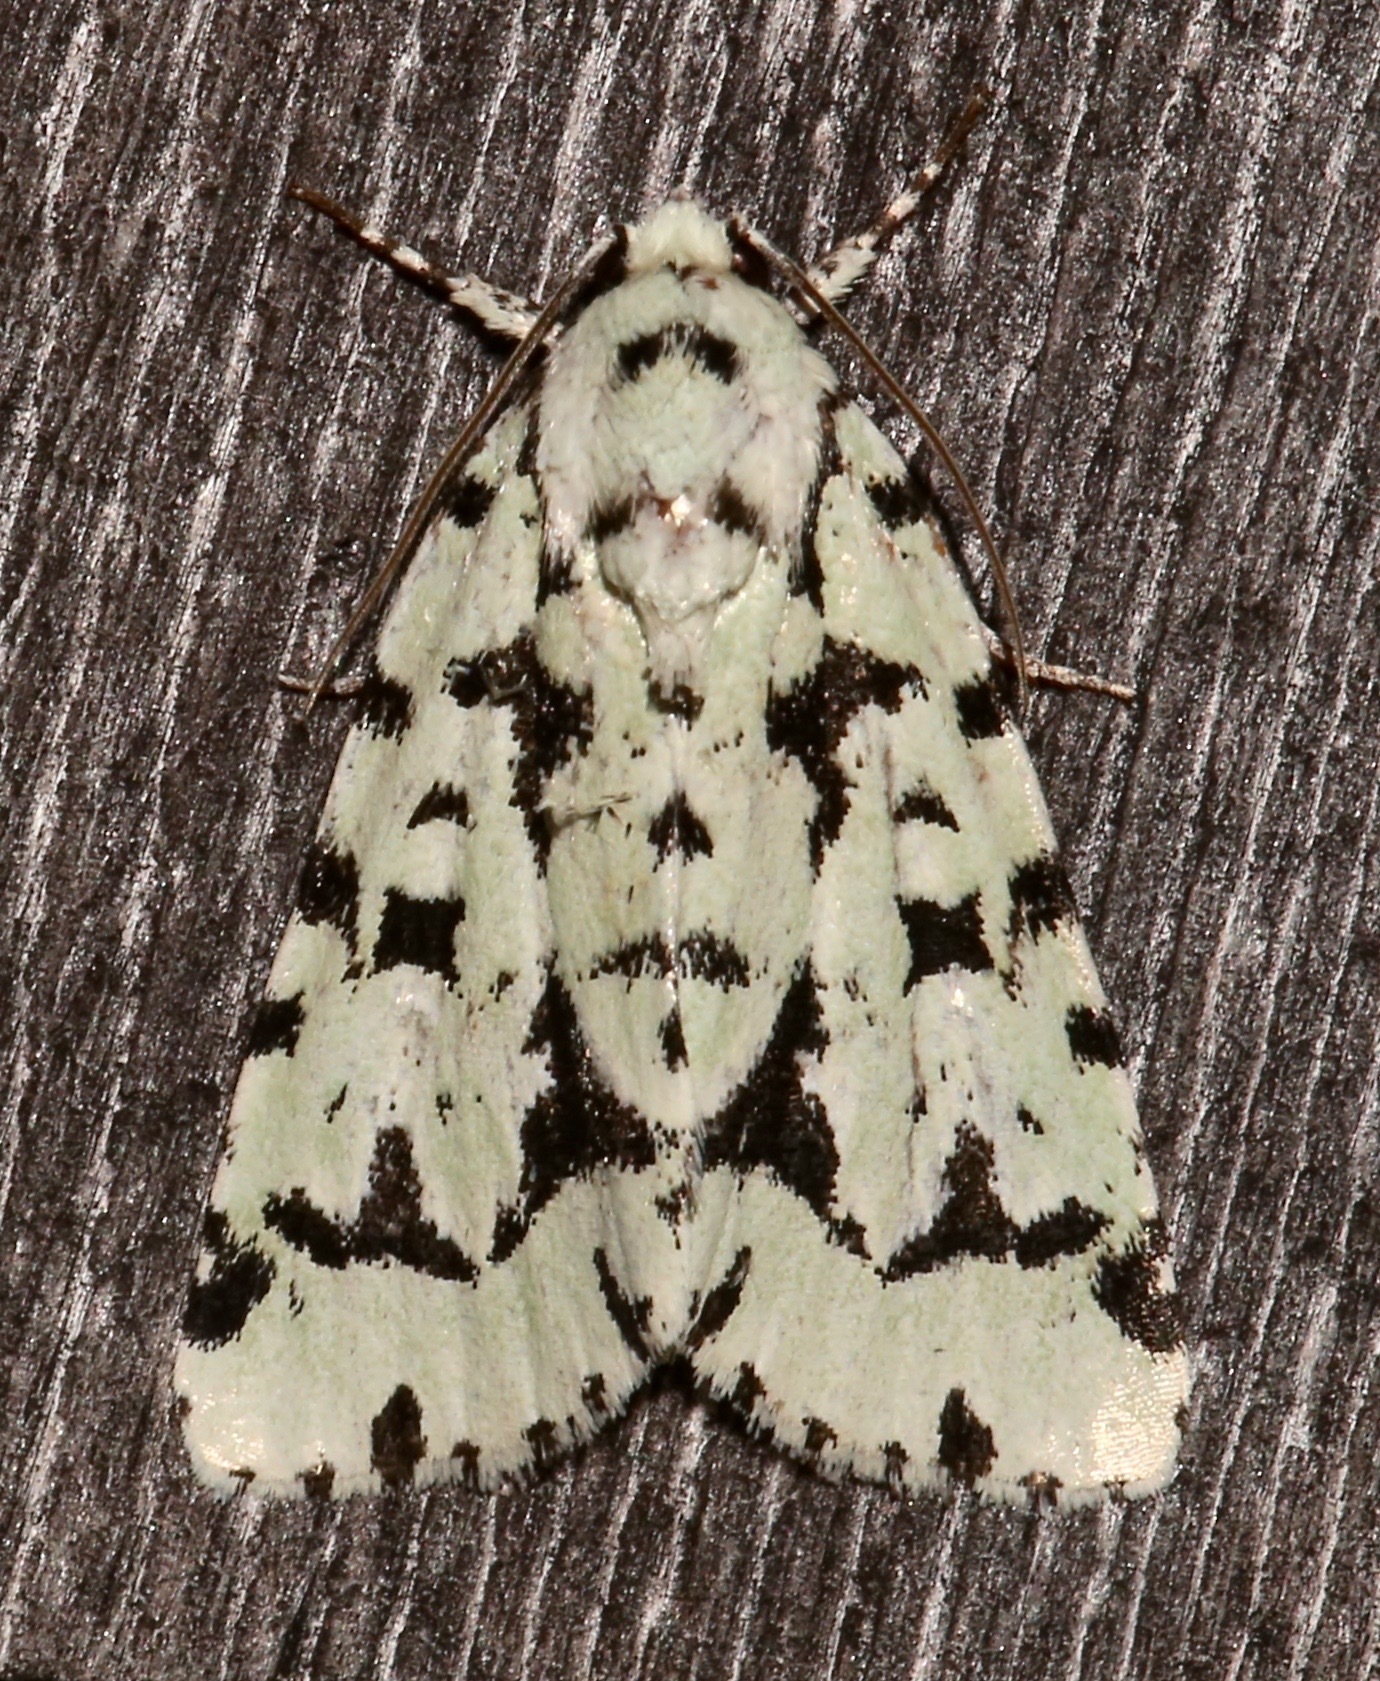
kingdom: Animalia
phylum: Arthropoda
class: Insecta
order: Lepidoptera
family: Noctuidae
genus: Acronicta
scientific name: Acronicta fallax
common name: Green marvel
